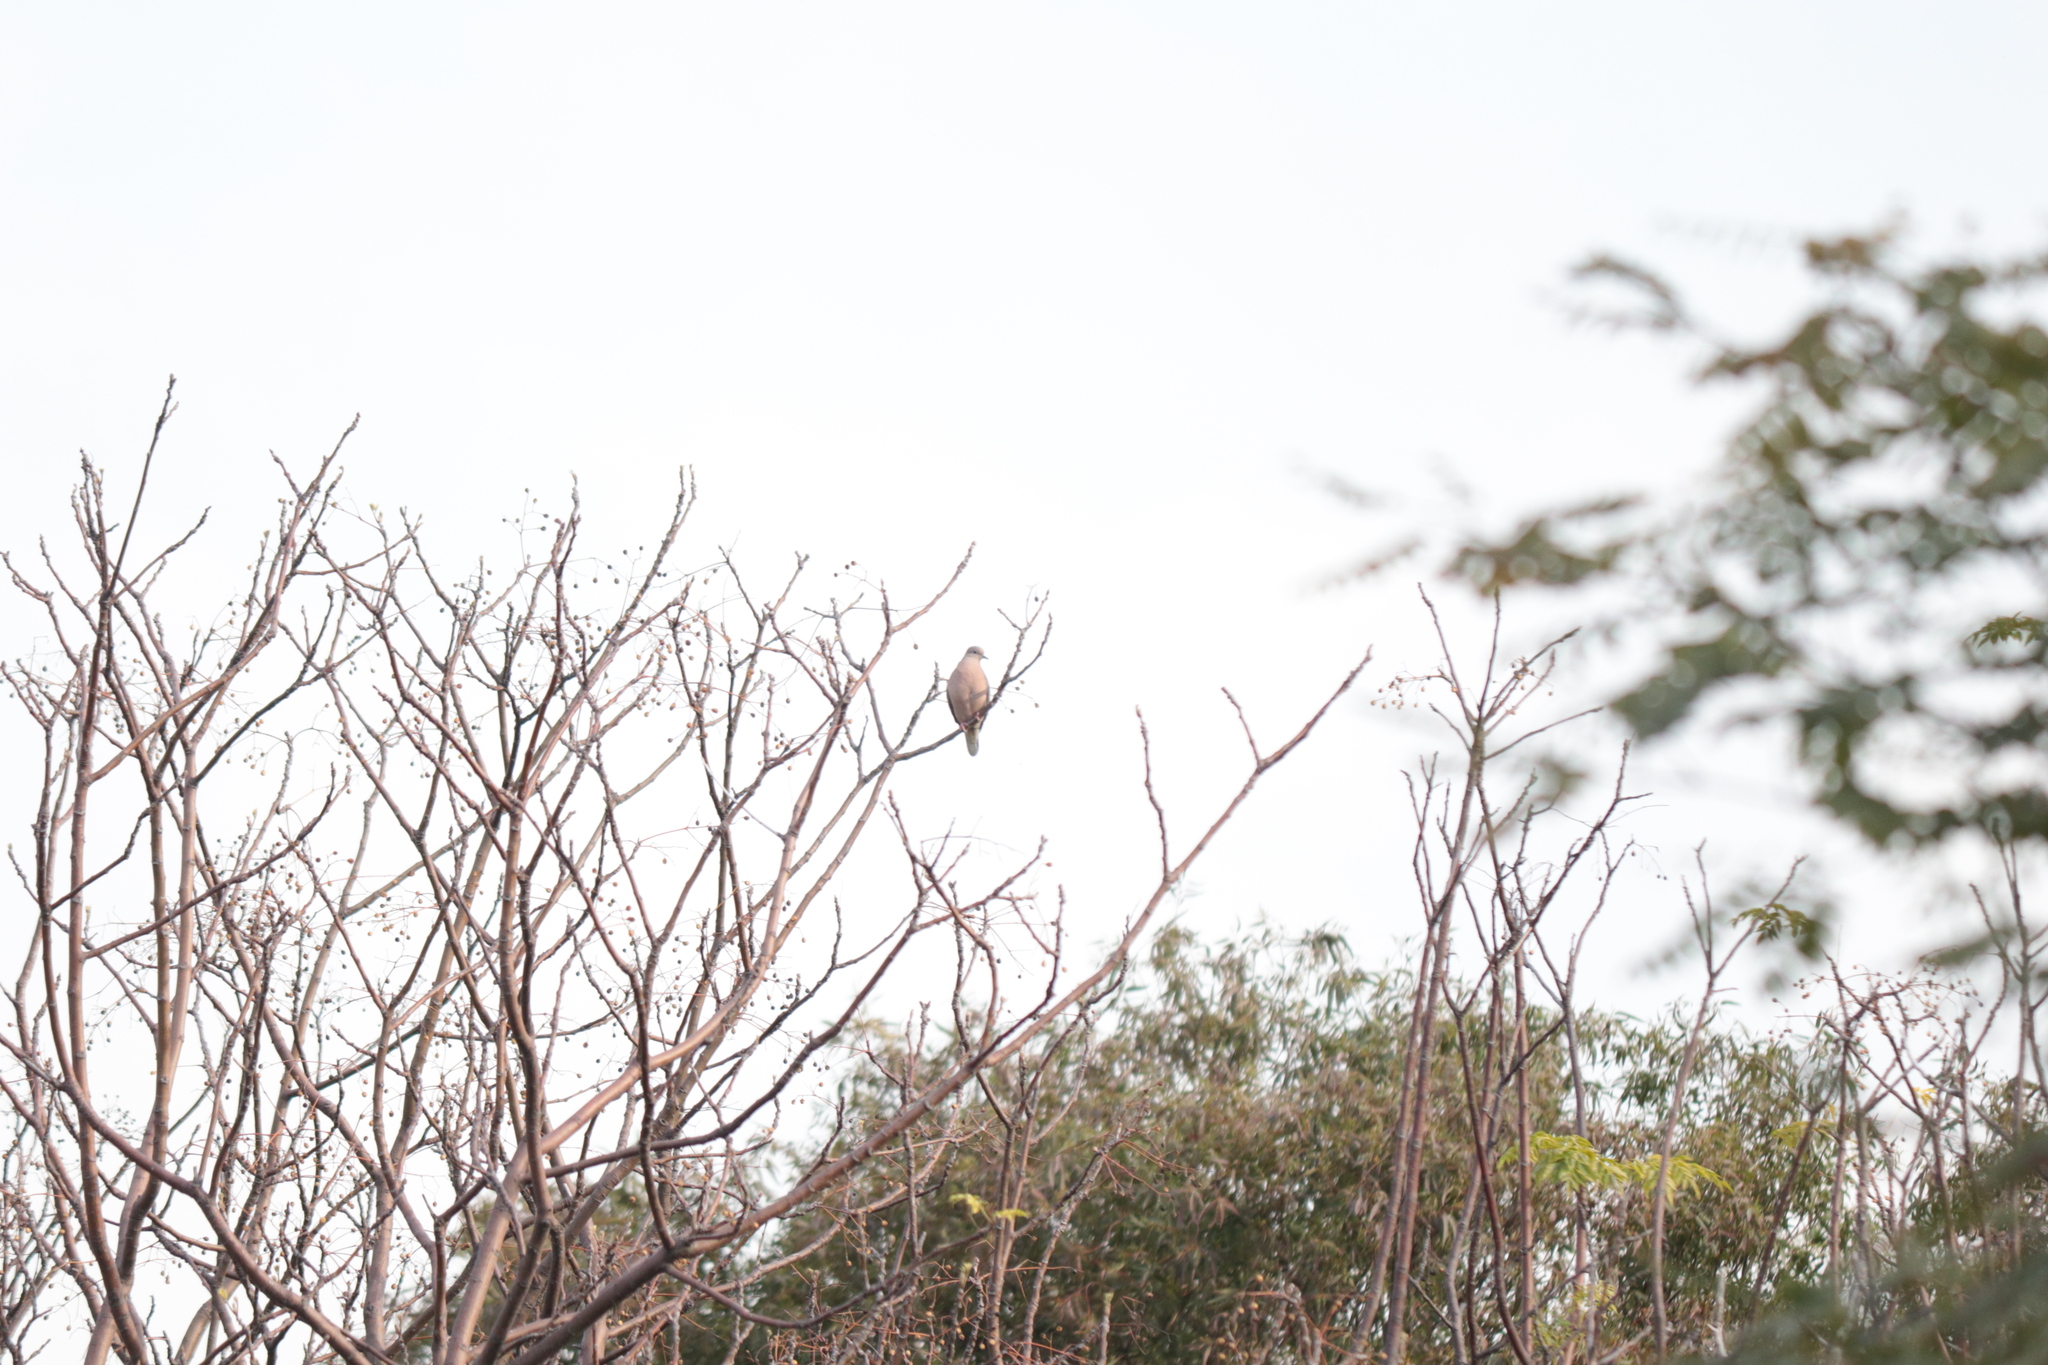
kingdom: Animalia
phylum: Chordata
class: Aves
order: Columbiformes
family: Columbidae
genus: Zenaida
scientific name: Zenaida auriculata
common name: Eared dove
